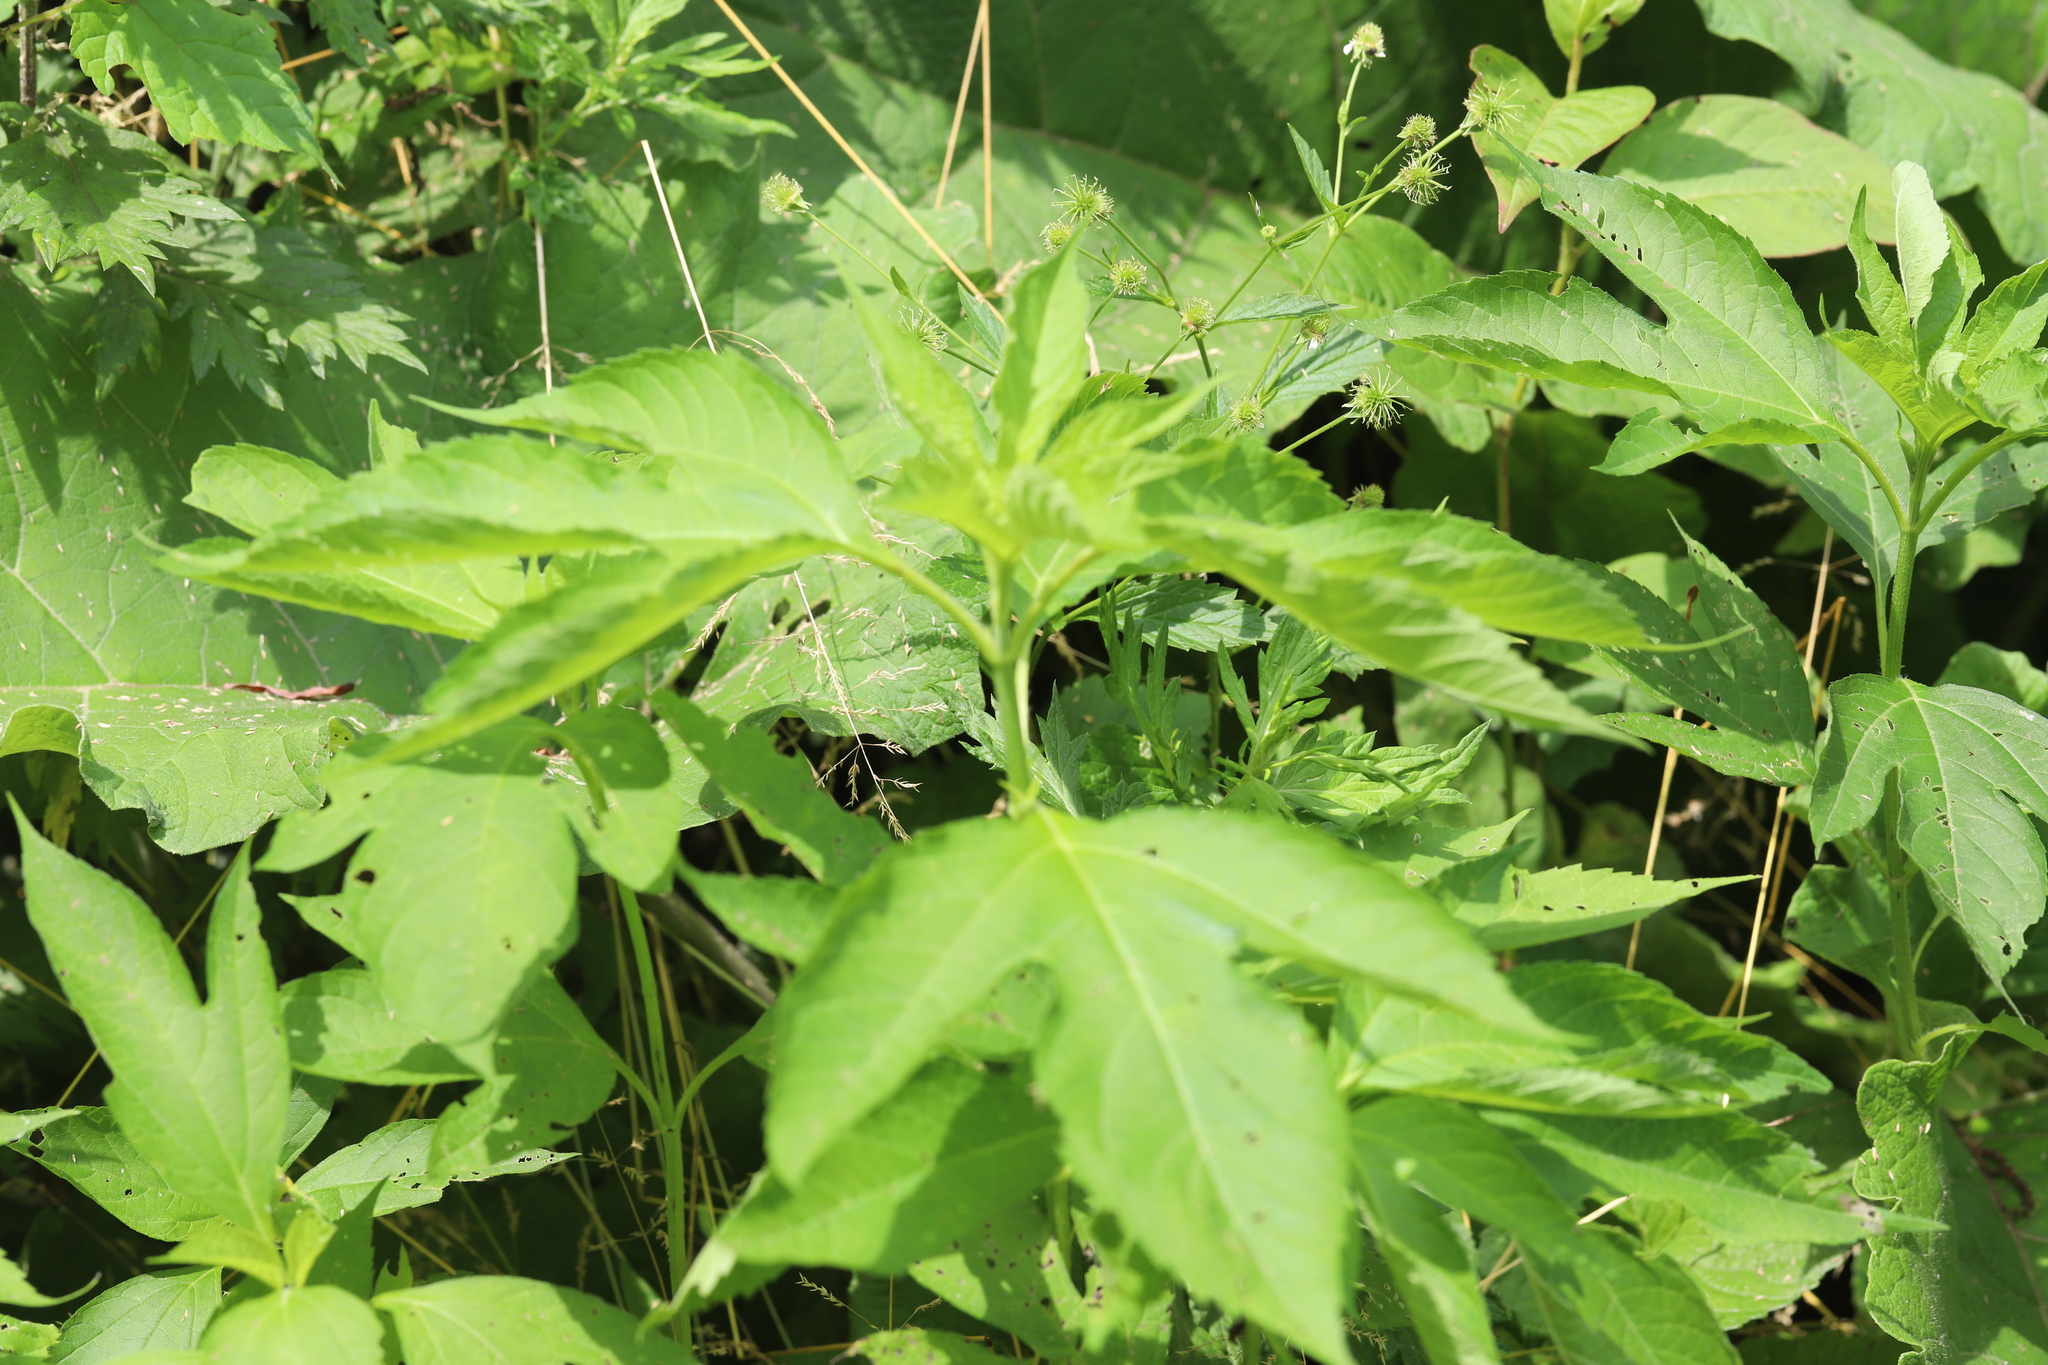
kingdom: Plantae
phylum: Tracheophyta
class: Magnoliopsida
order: Asterales
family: Asteraceae
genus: Ambrosia
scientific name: Ambrosia trifida
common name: Giant ragweed
